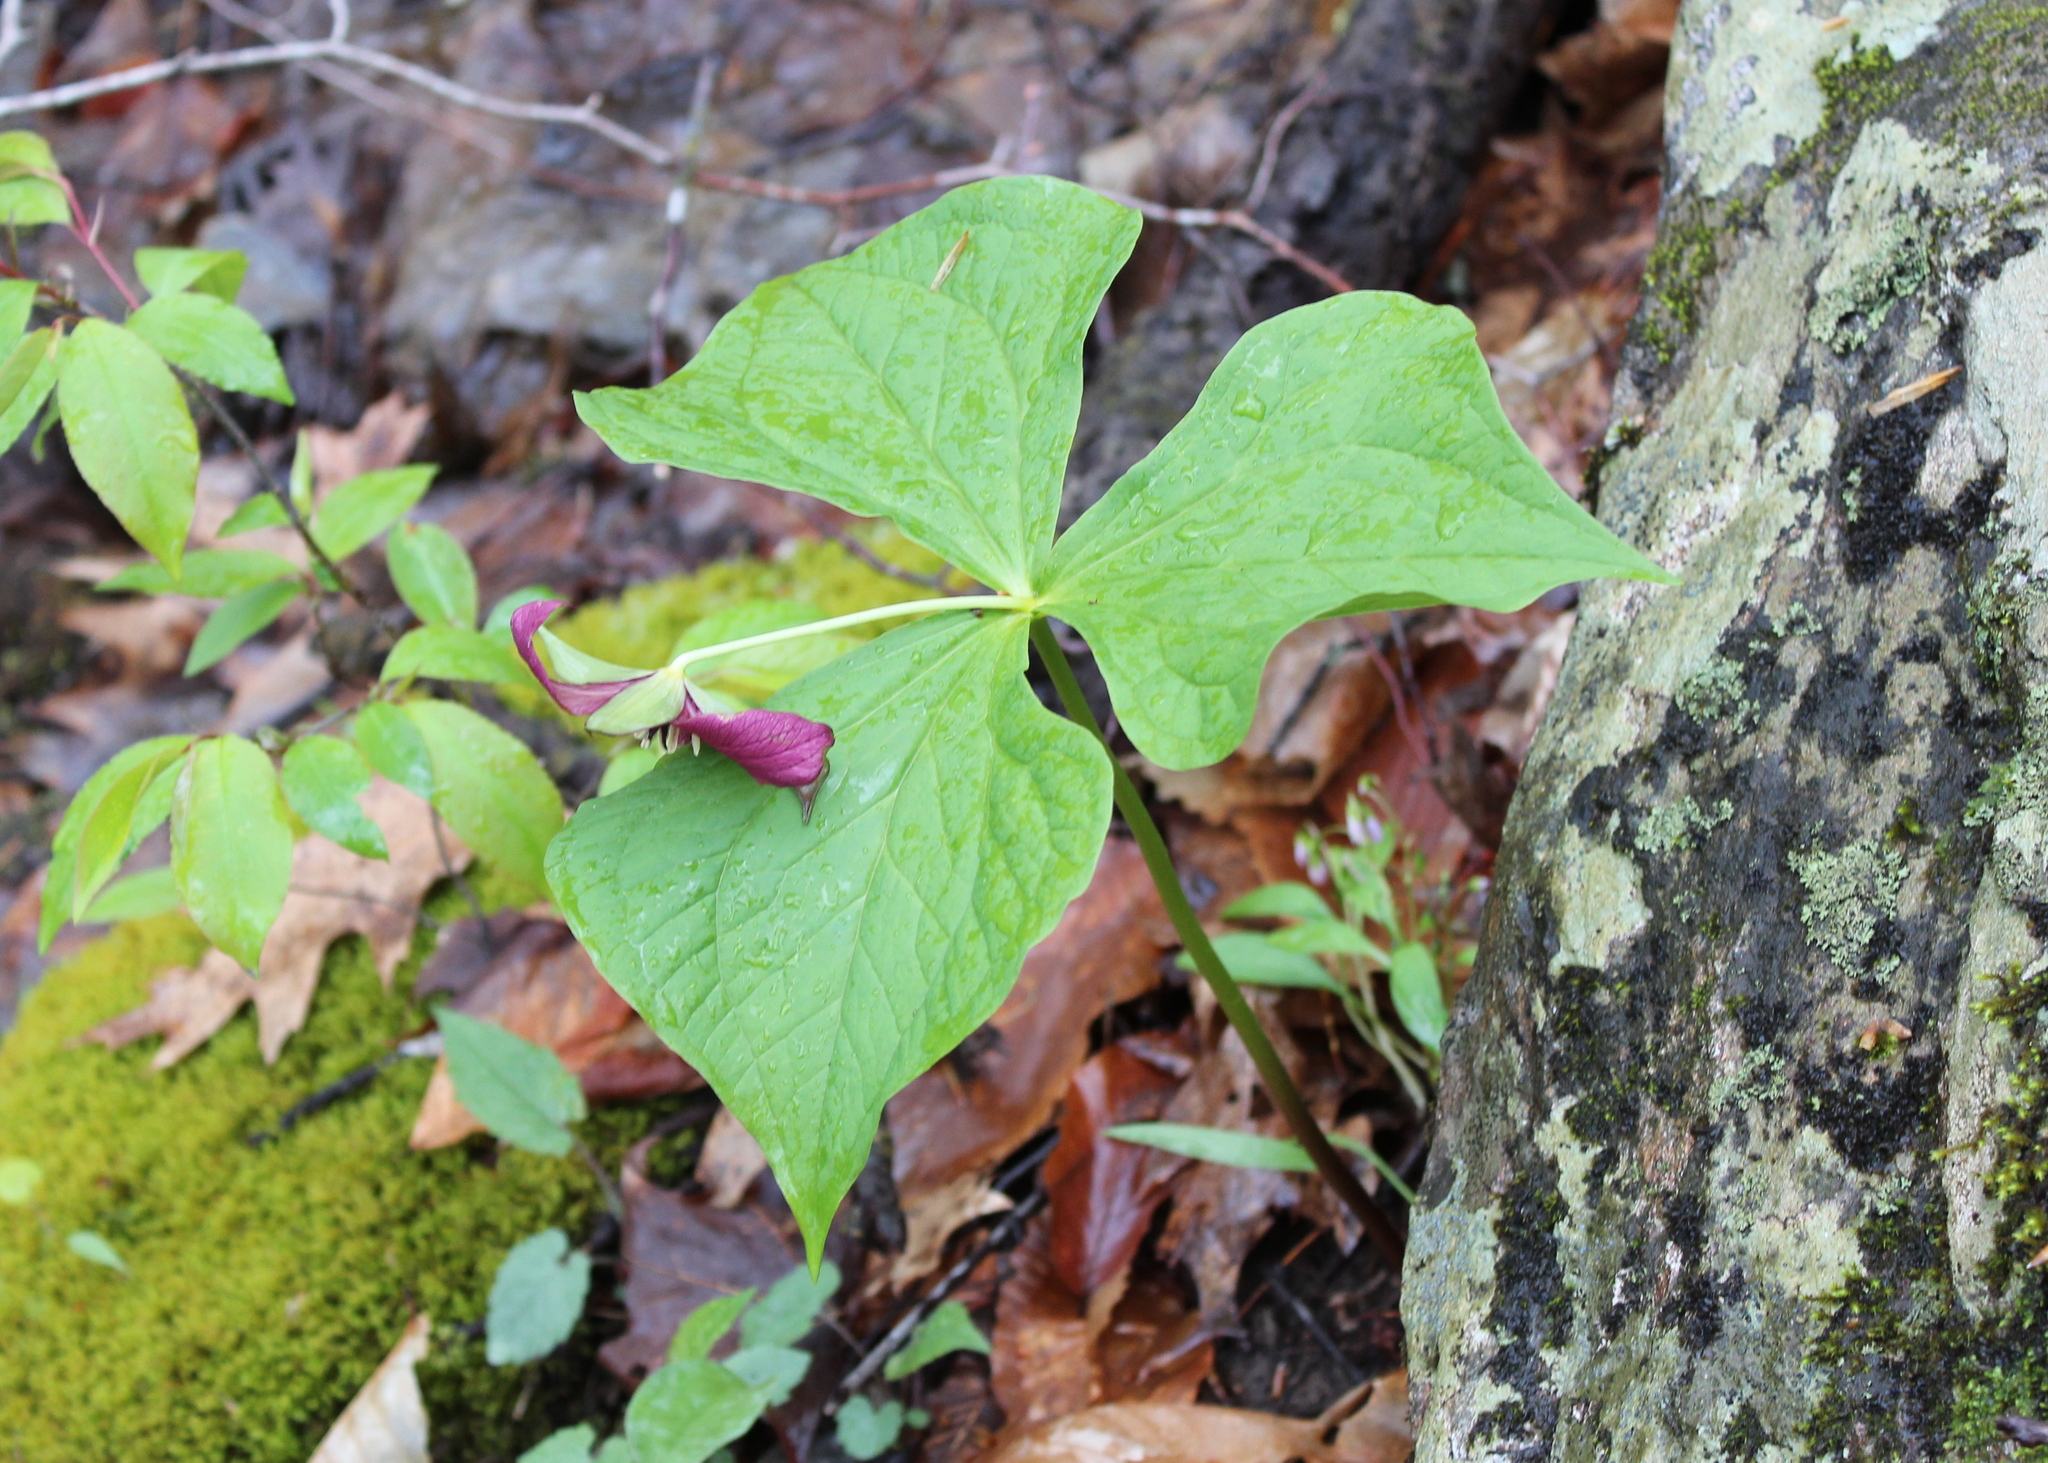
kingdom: Plantae
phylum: Tracheophyta
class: Liliopsida
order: Liliales
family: Melanthiaceae
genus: Trillium
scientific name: Trillium erectum
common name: Purple trillium
